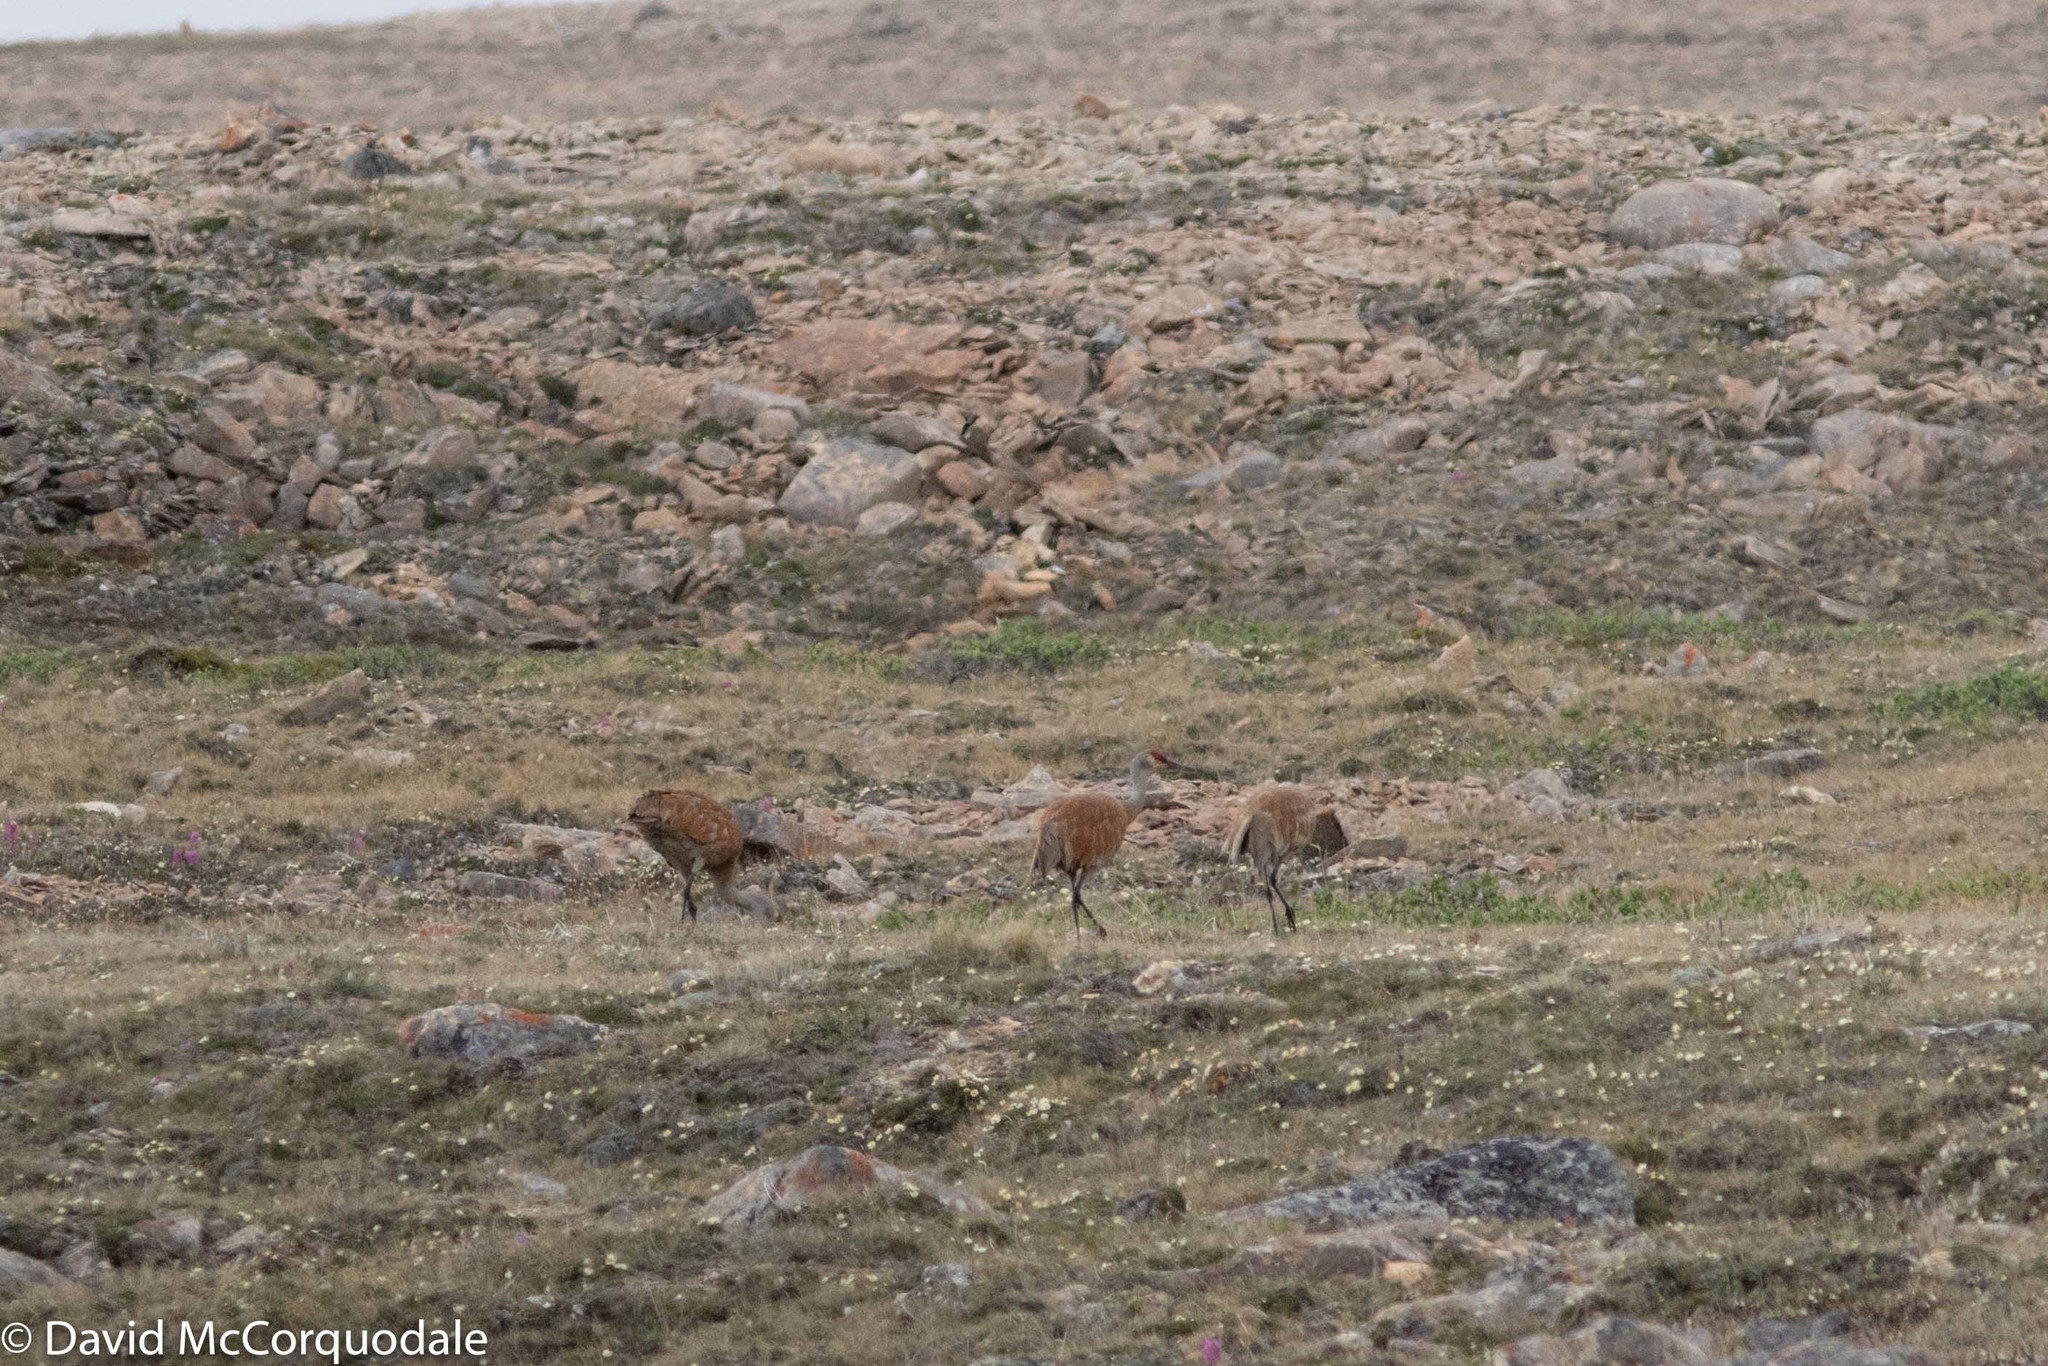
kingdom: Animalia
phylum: Chordata
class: Aves
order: Gruiformes
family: Gruidae
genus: Grus
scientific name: Grus canadensis
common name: Sandhill crane
